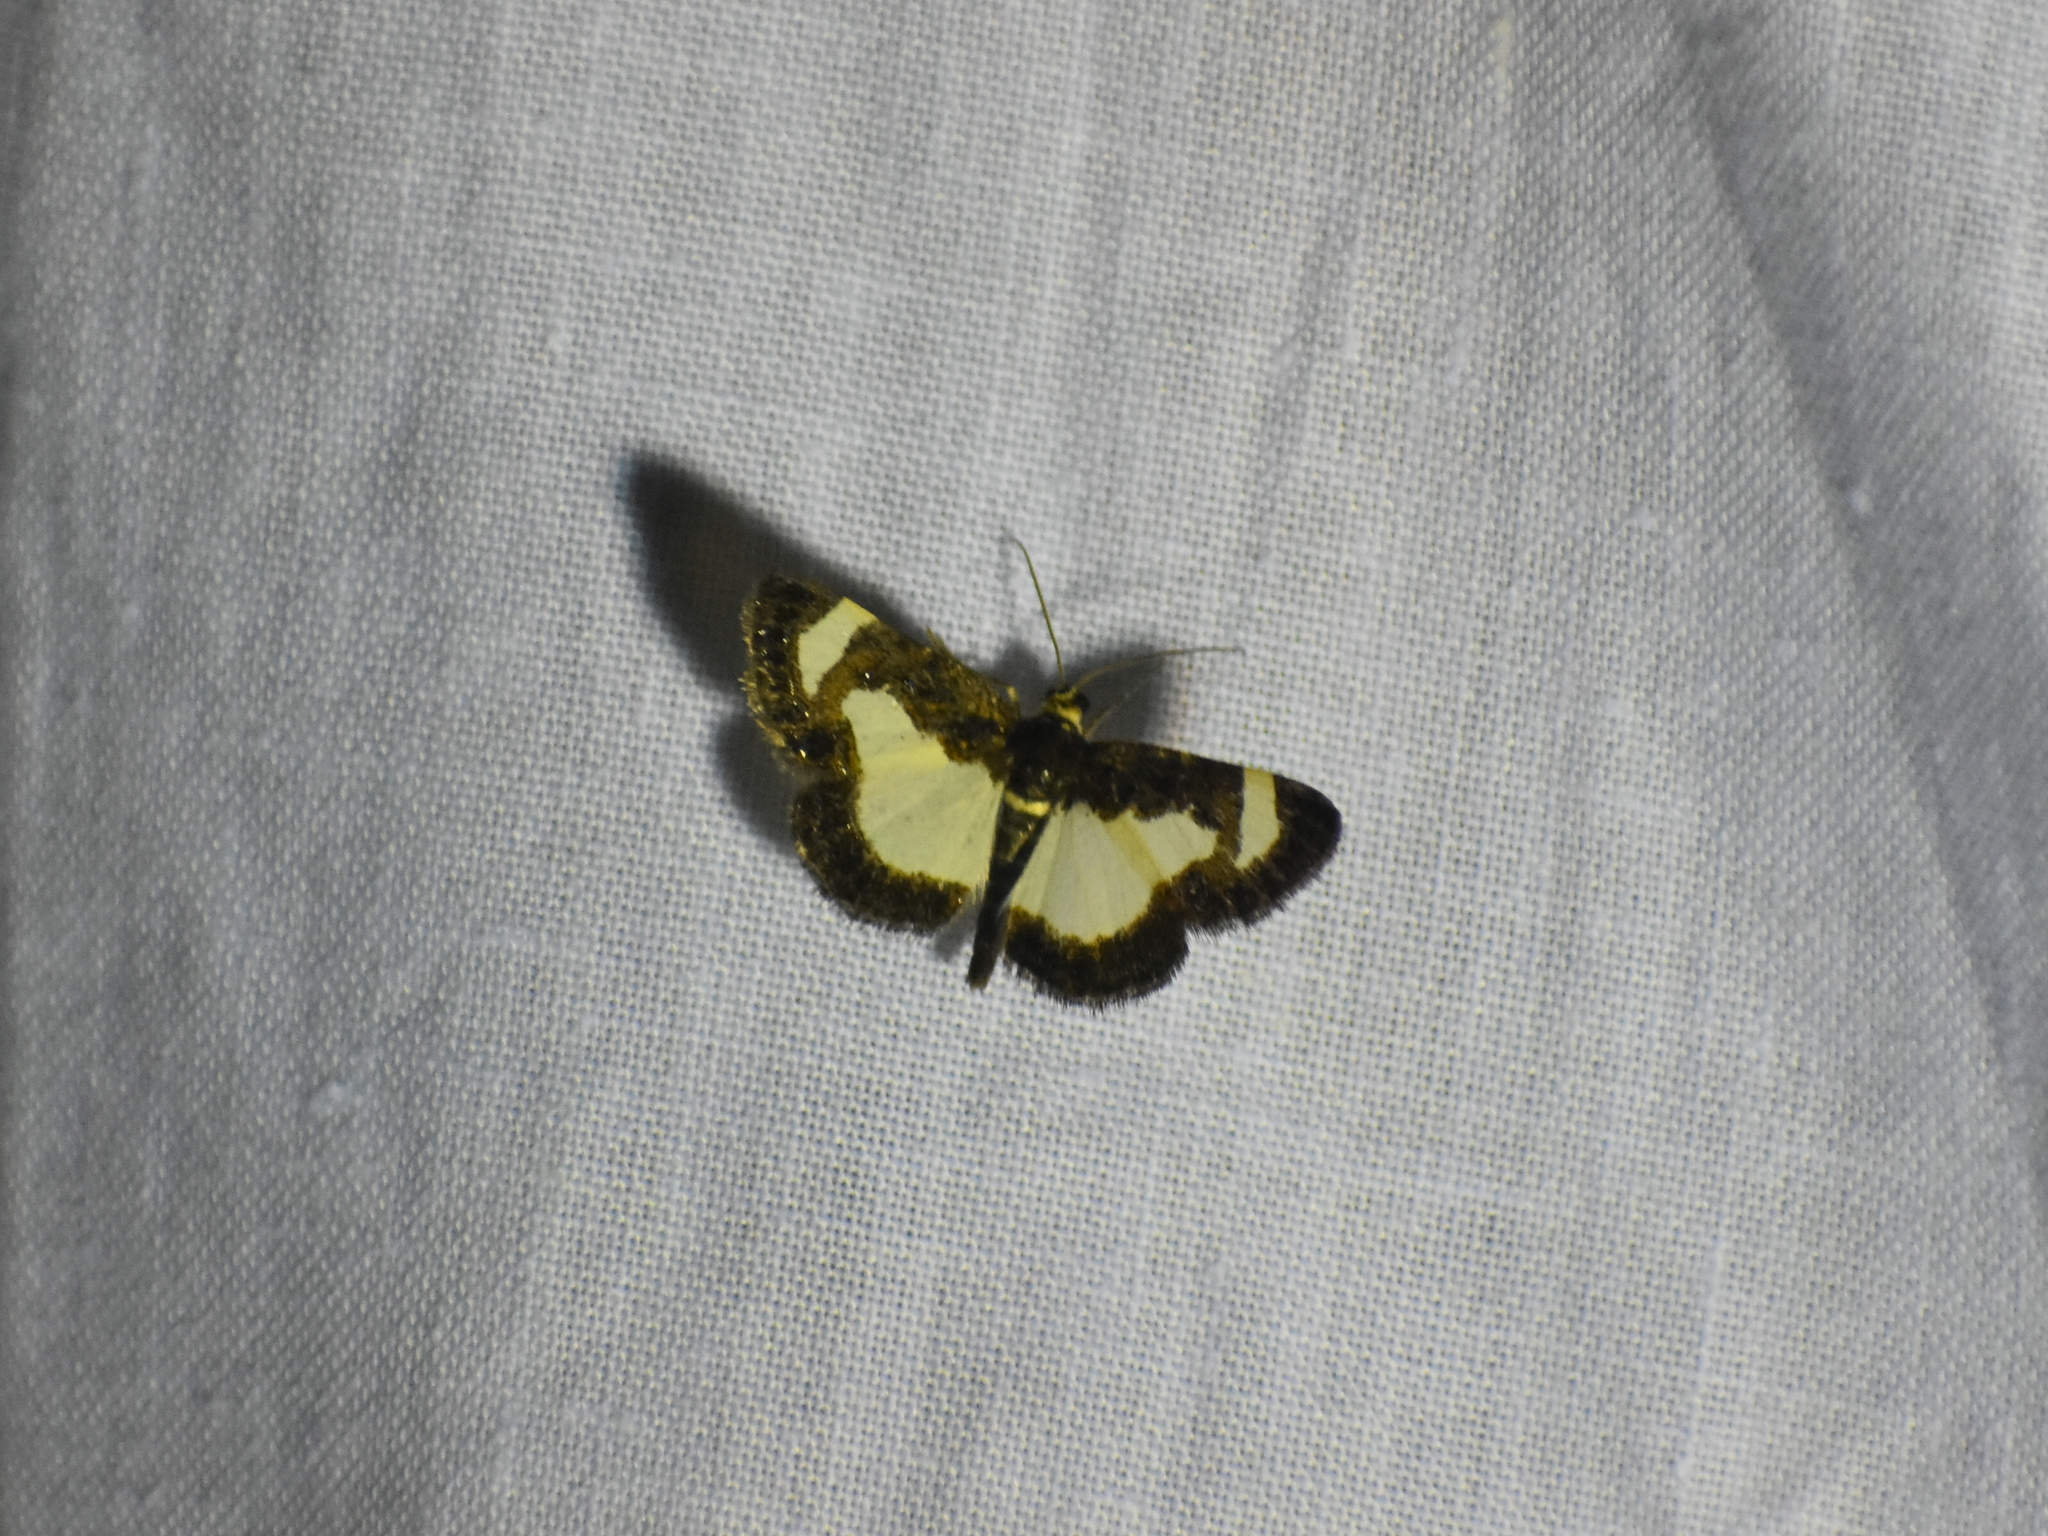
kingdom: Animalia
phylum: Arthropoda
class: Insecta
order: Lepidoptera
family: Geometridae
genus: Heliomata
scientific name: Heliomata cycladata
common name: Common spring moth
